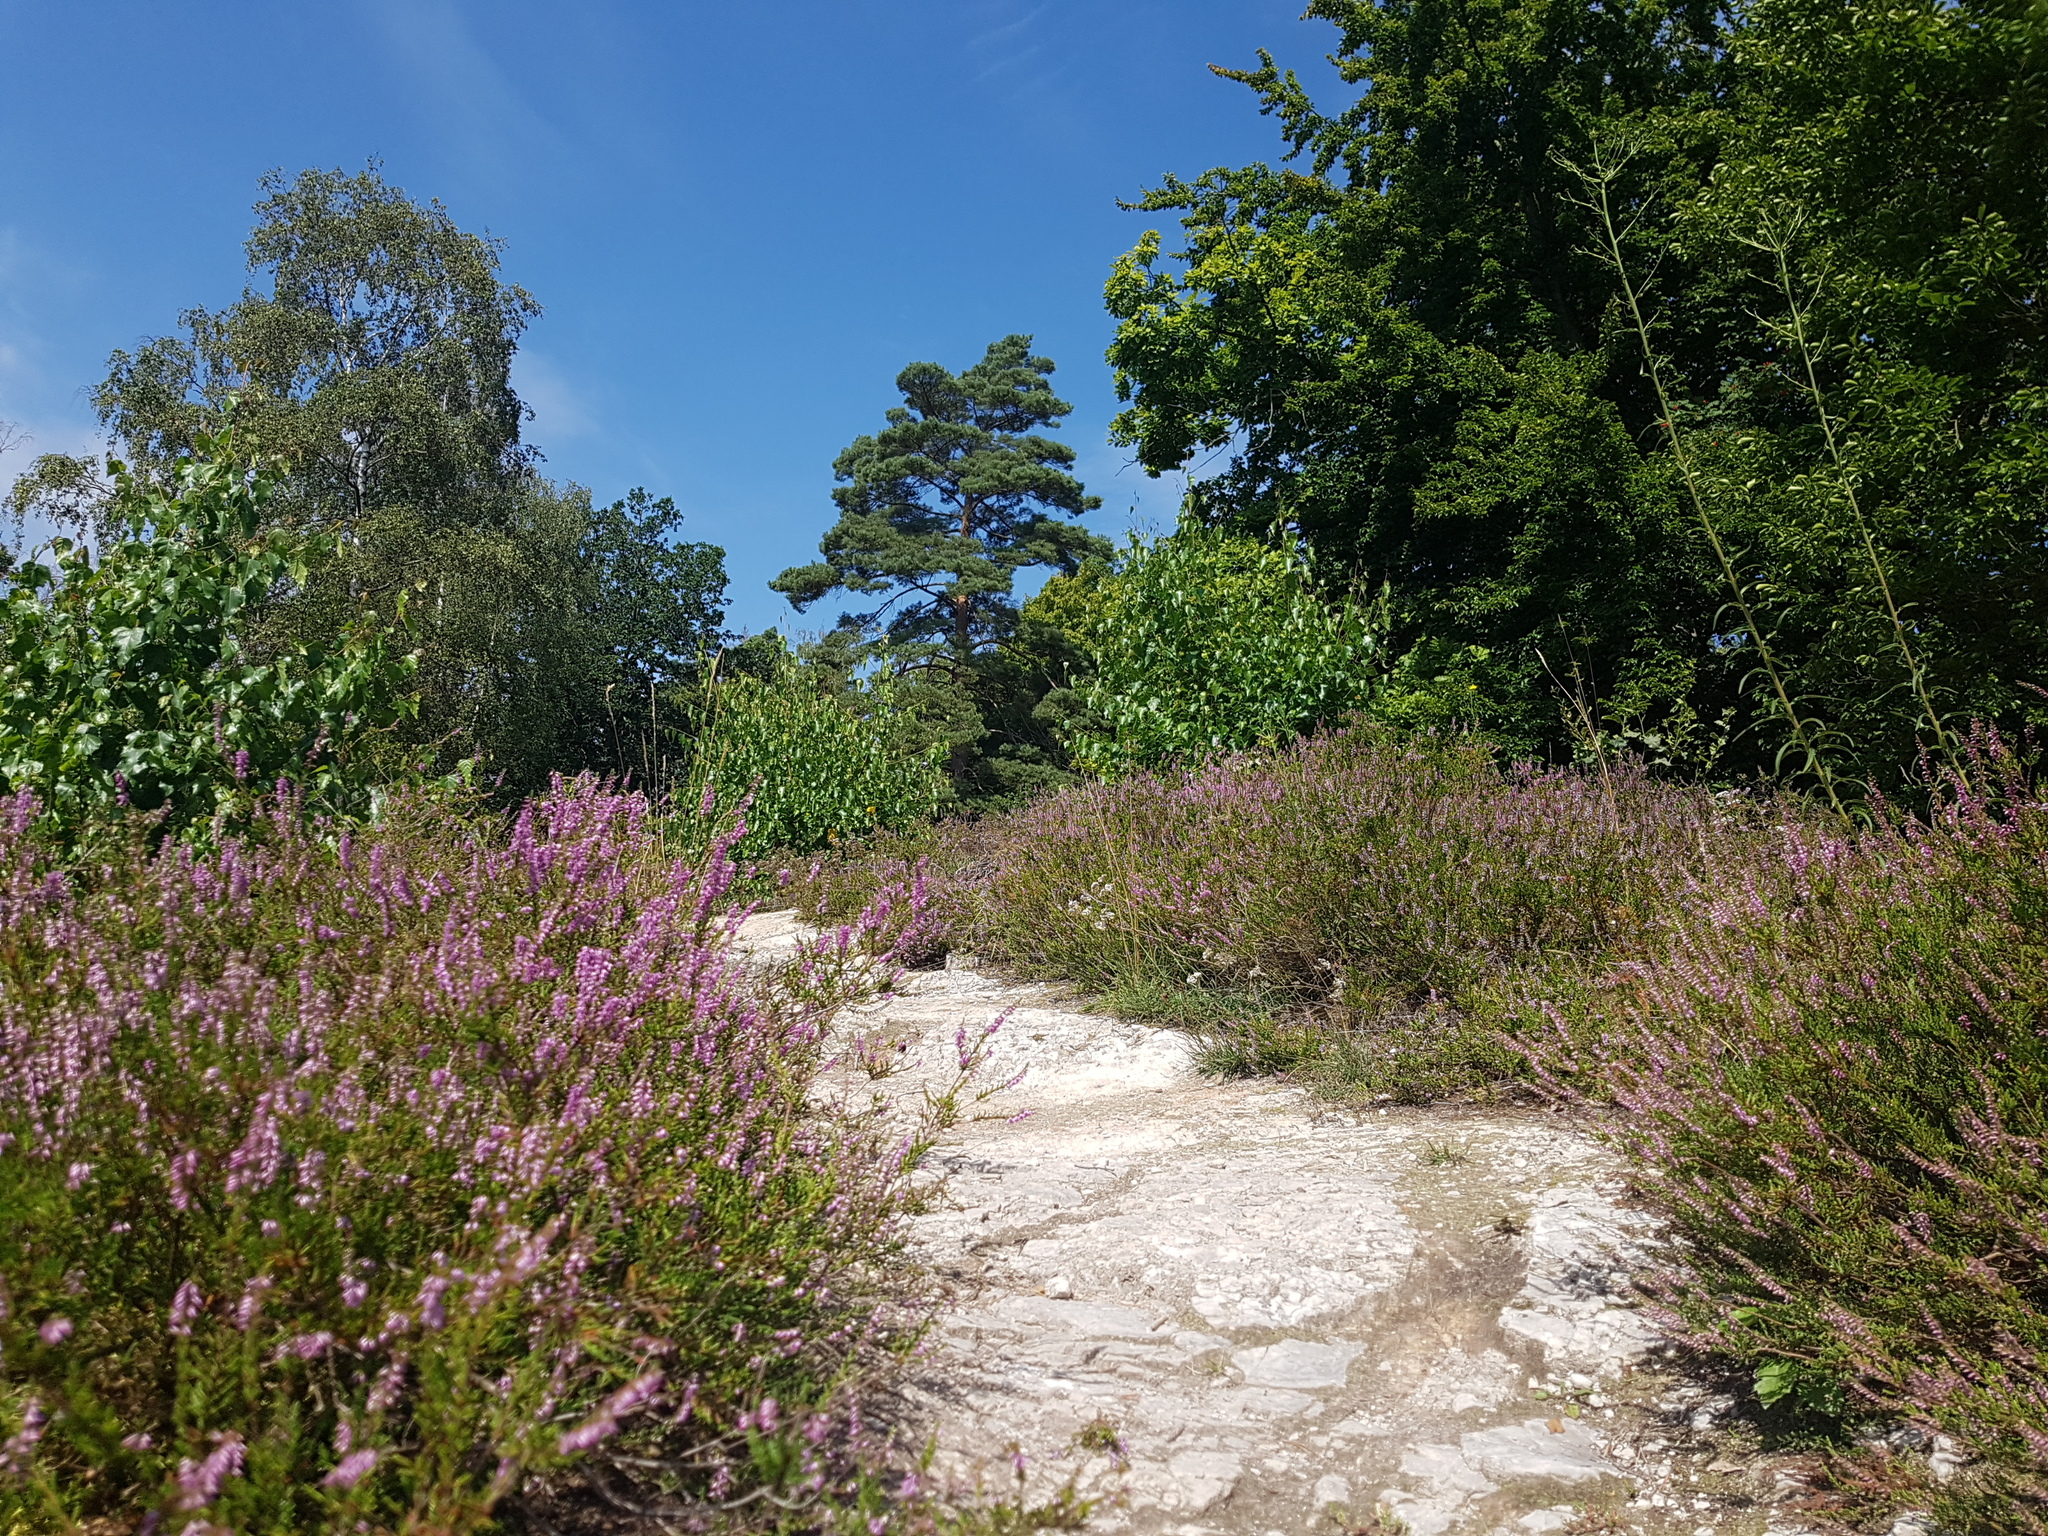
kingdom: Plantae
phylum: Tracheophyta
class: Magnoliopsida
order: Ericales
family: Ericaceae
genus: Calluna
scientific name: Calluna vulgaris
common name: Heather
